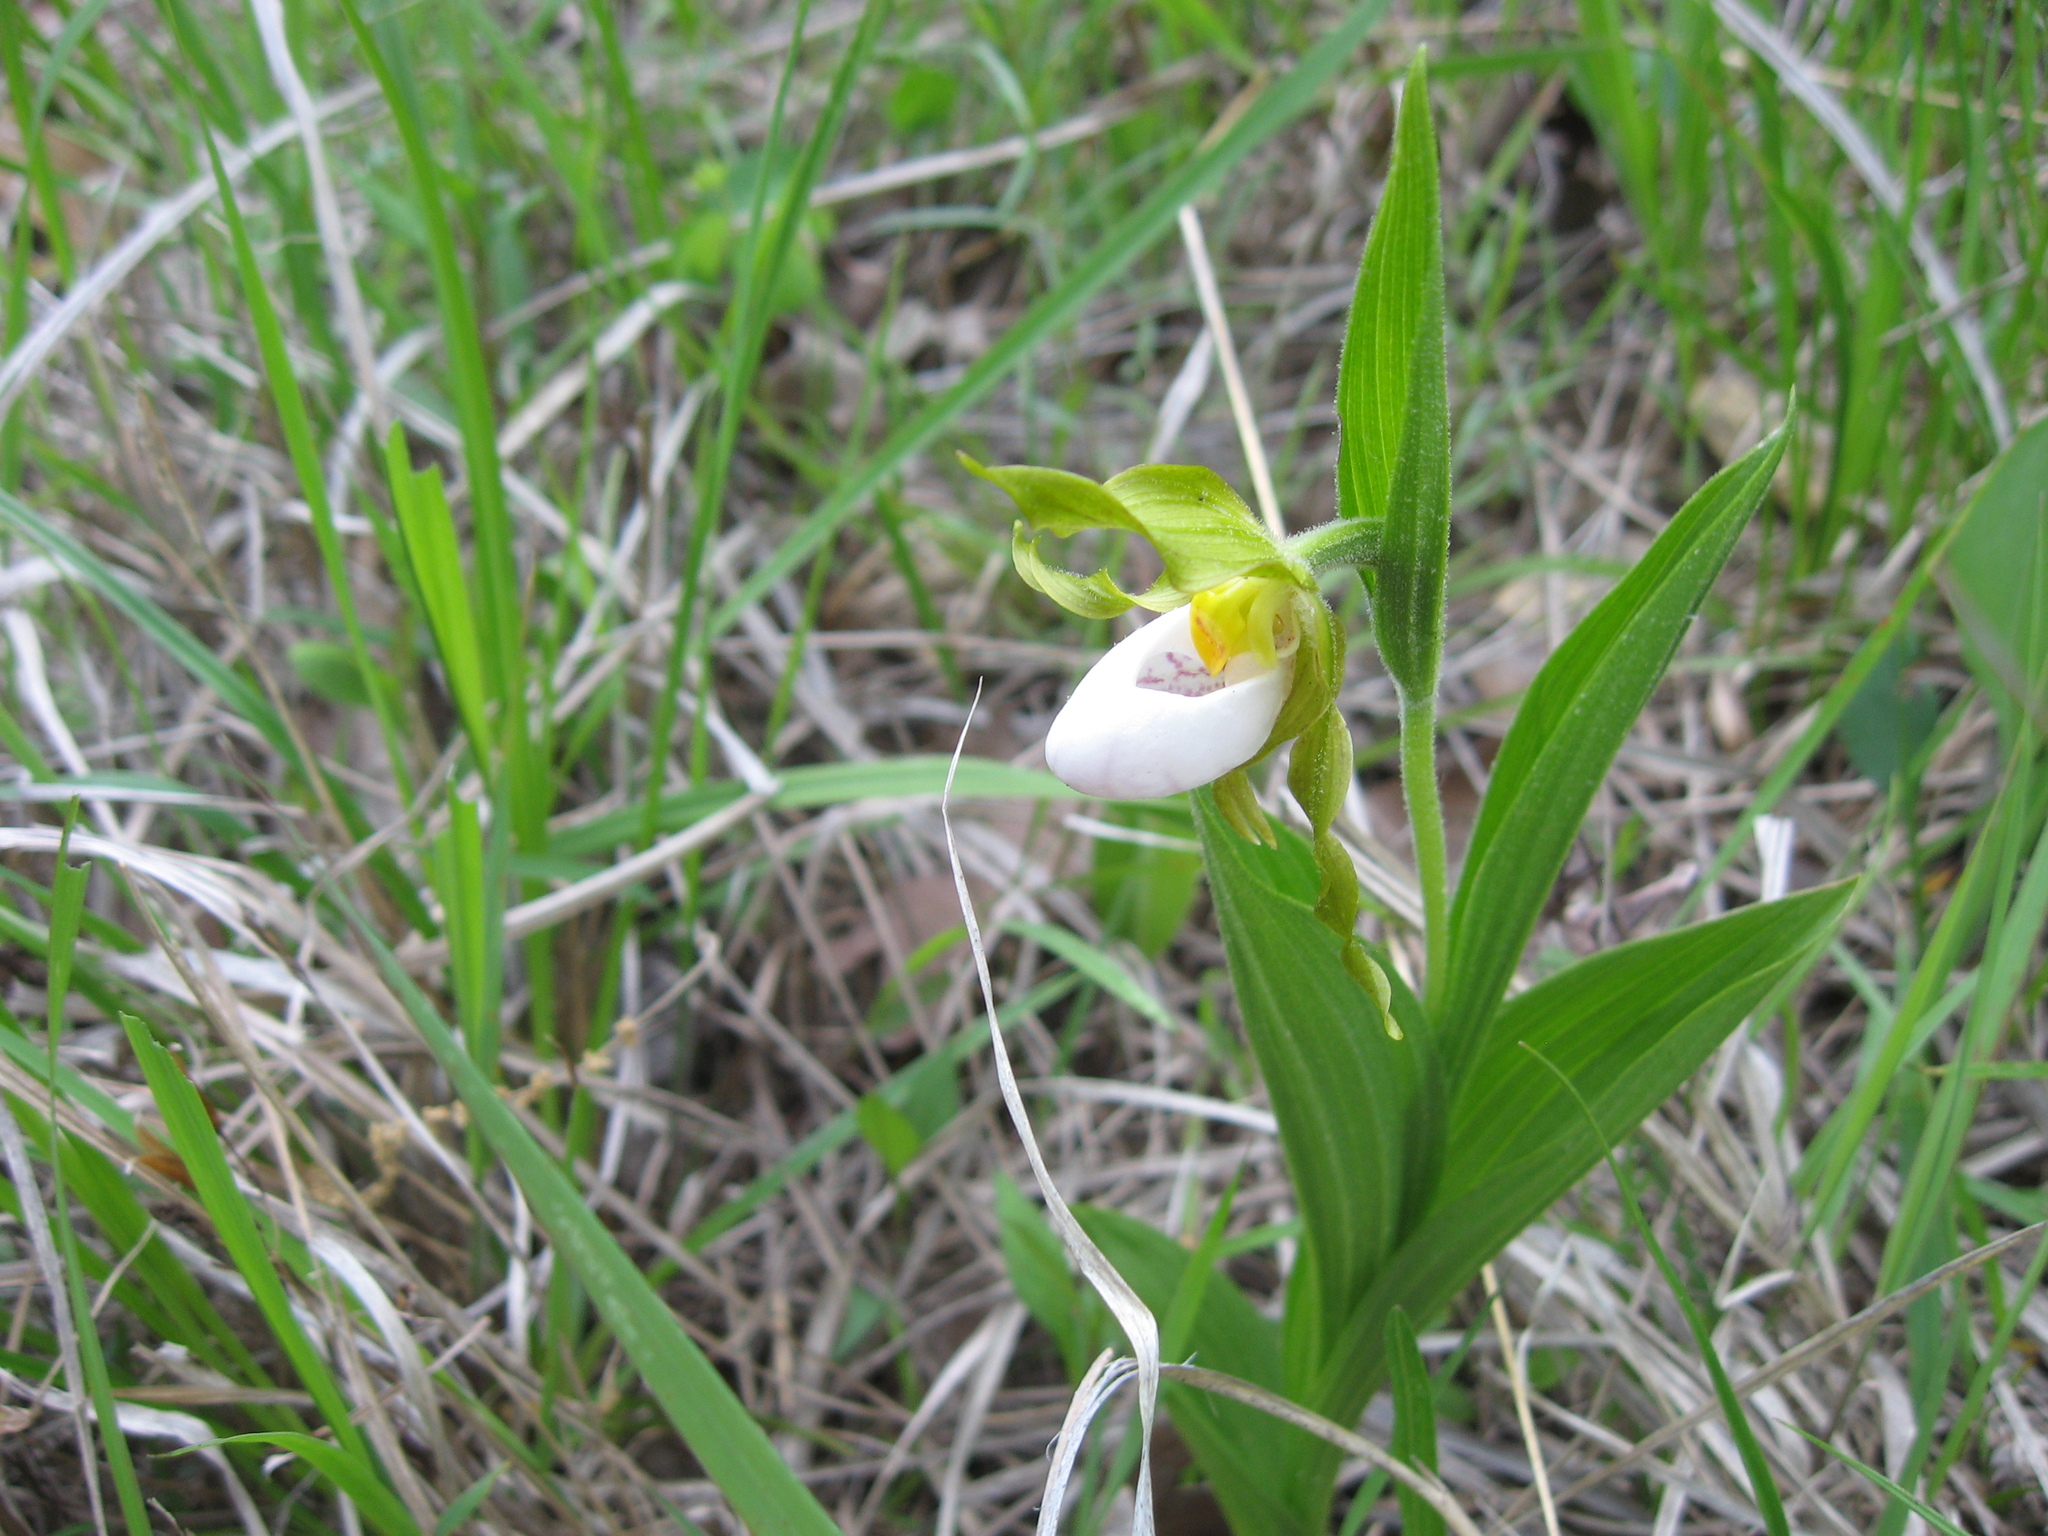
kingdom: Plantae
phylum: Tracheophyta
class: Liliopsida
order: Asparagales
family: Orchidaceae
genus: Cypripedium
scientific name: Cypripedium candidum
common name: White lady's-slipper
